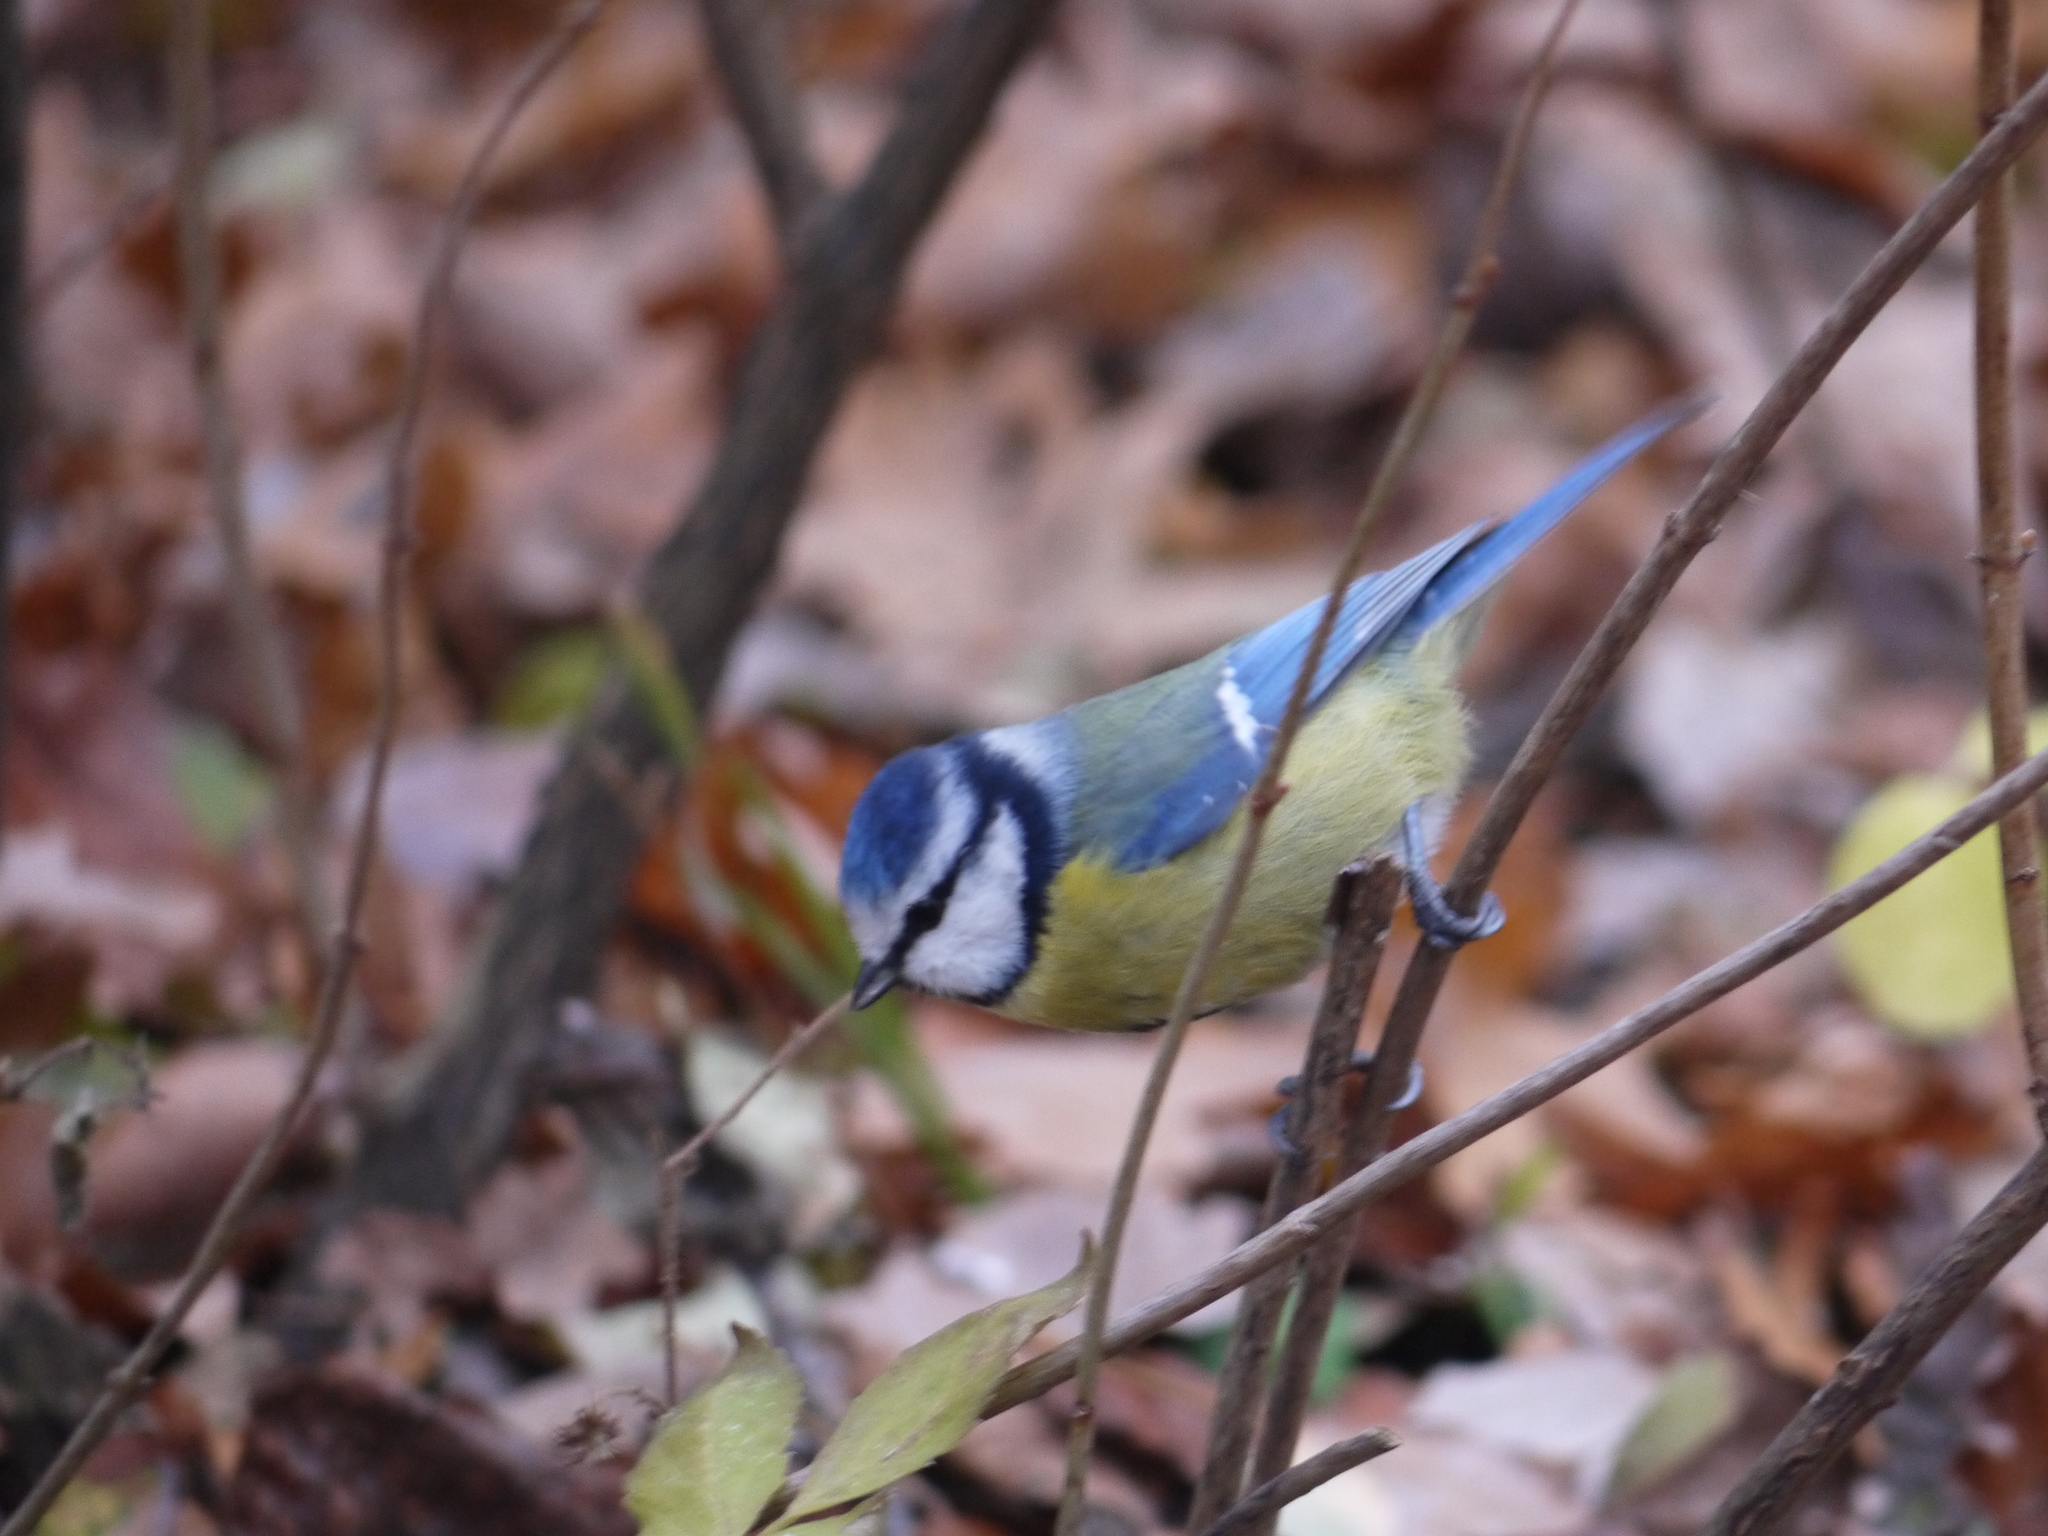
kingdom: Animalia
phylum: Chordata
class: Aves
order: Passeriformes
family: Paridae
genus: Cyanistes
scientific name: Cyanistes caeruleus
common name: Eurasian blue tit
